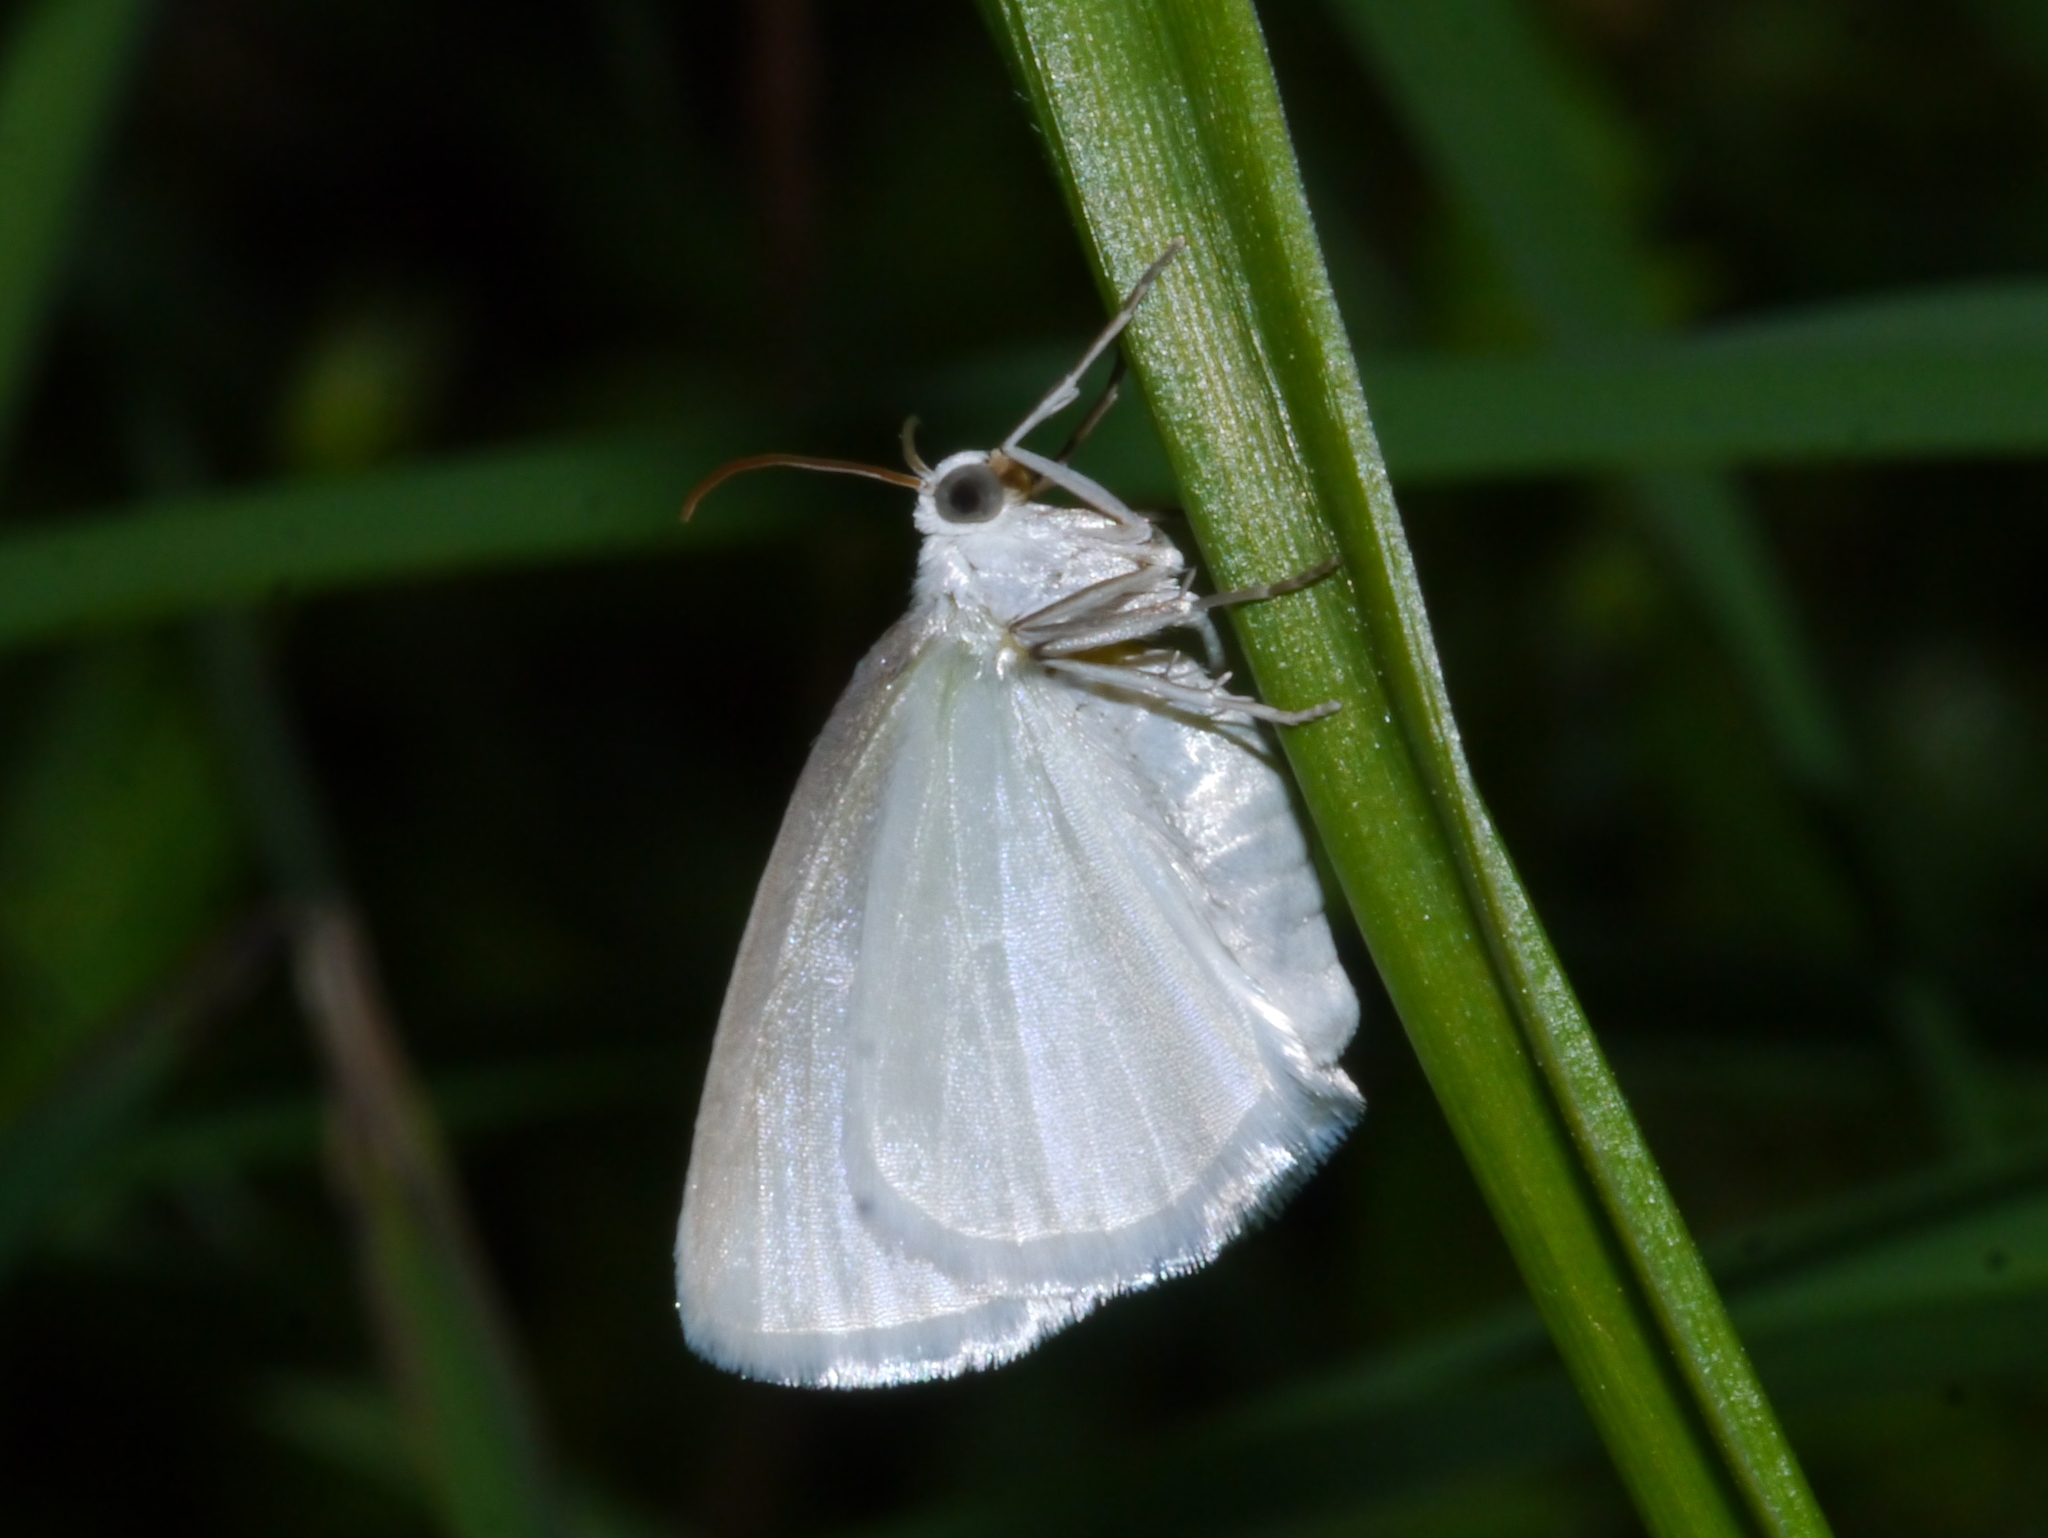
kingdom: Animalia
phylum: Arthropoda
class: Insecta
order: Lepidoptera
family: Geometridae
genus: Lomographa
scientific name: Lomographa vestaliata
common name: White spring moth
